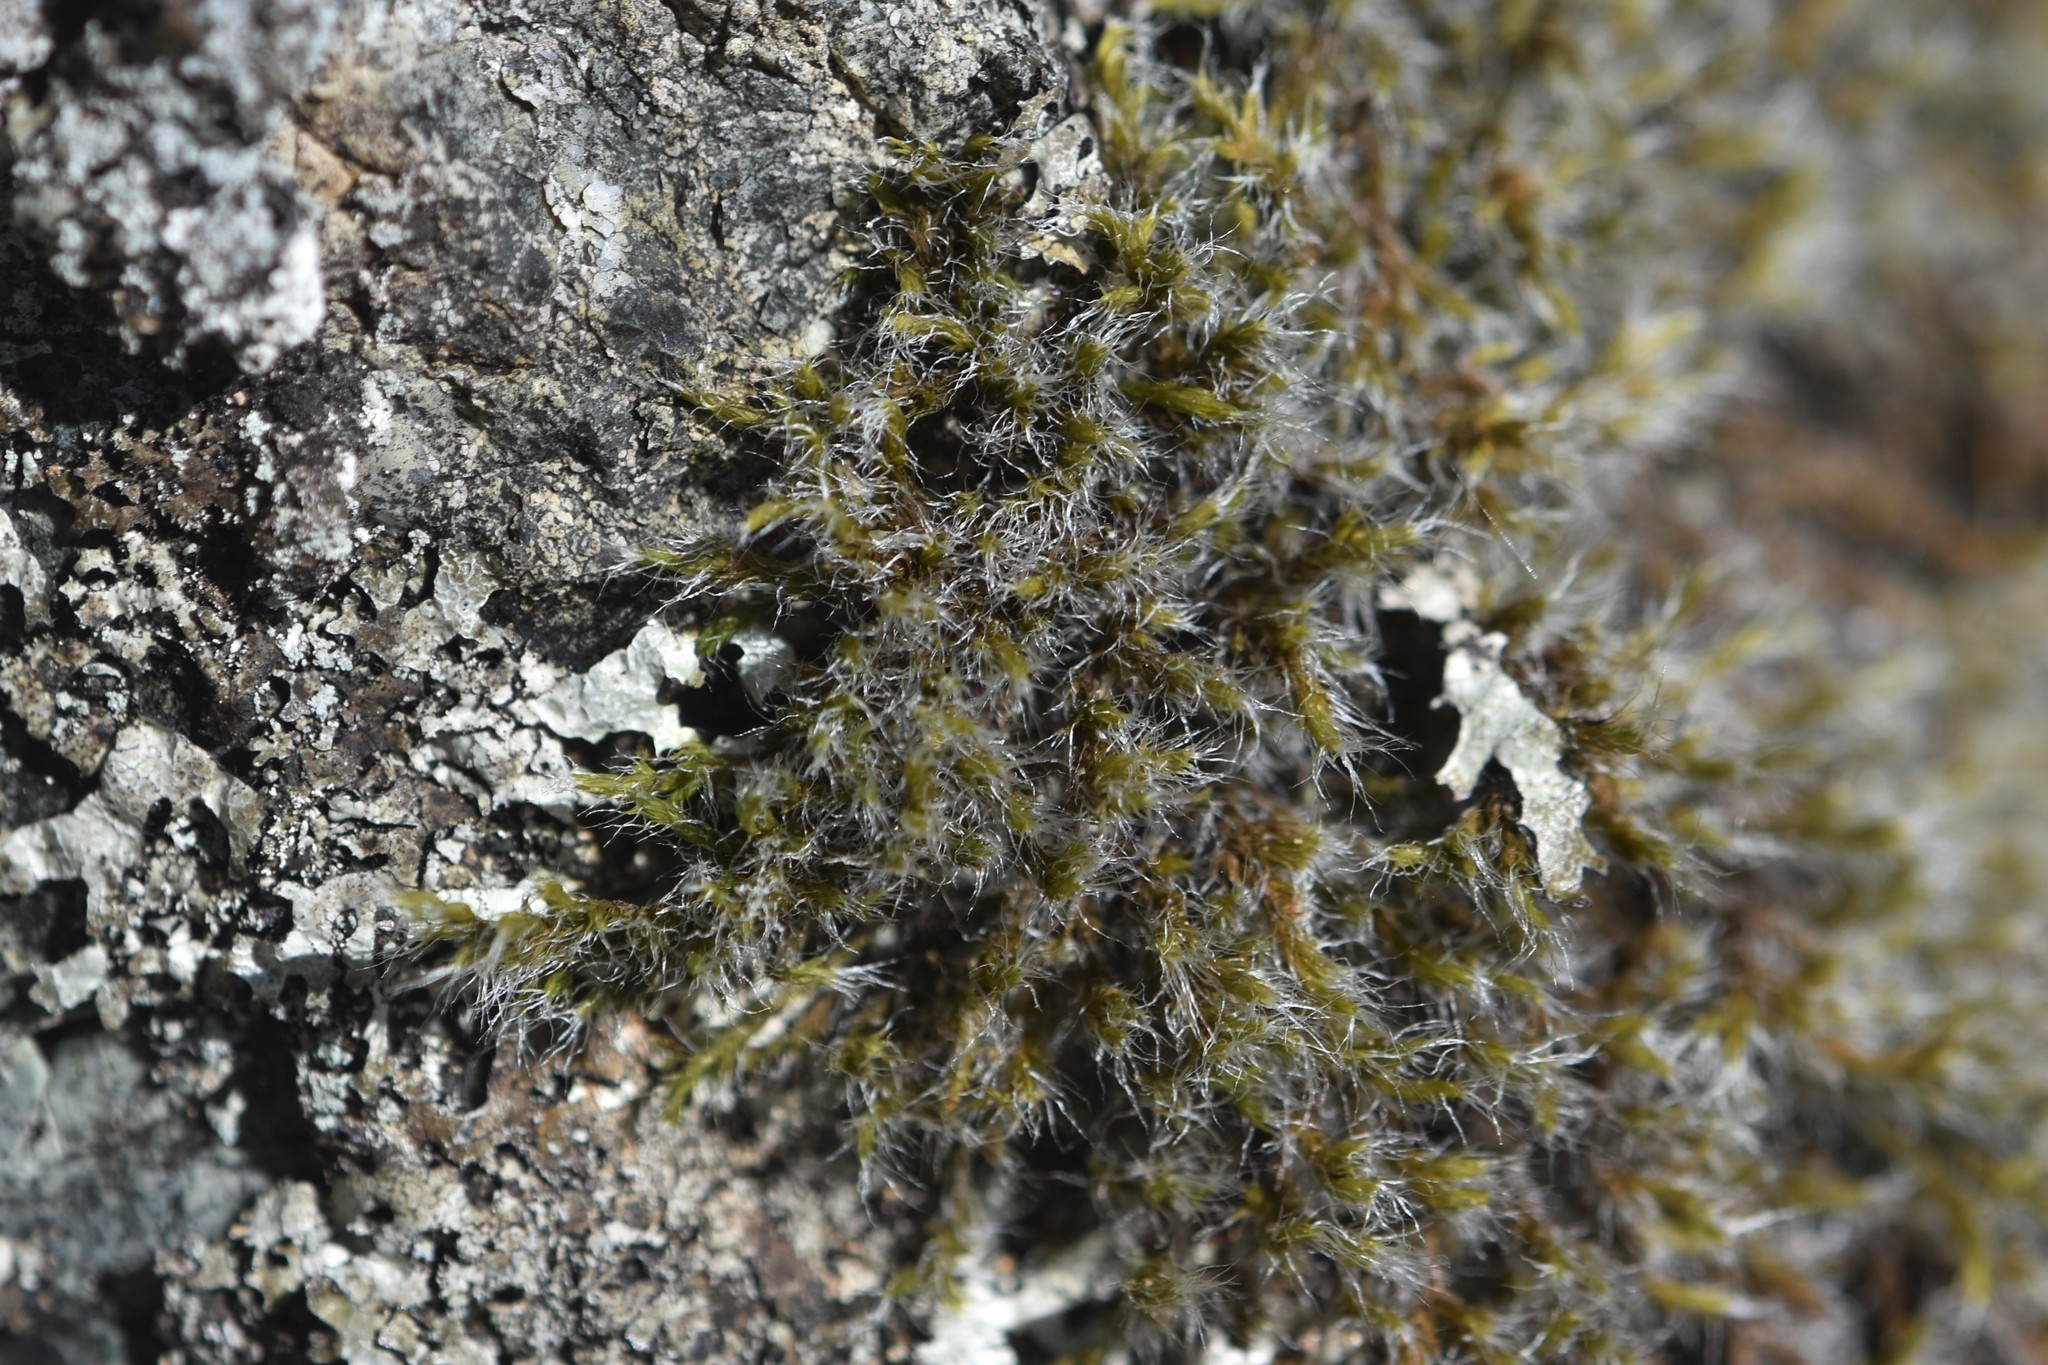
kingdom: Plantae
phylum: Bryophyta
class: Bryopsida
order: Grimmiales
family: Grimmiaceae
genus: Racomitrium
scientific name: Racomitrium lanuginosum
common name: Hoary rock moss
